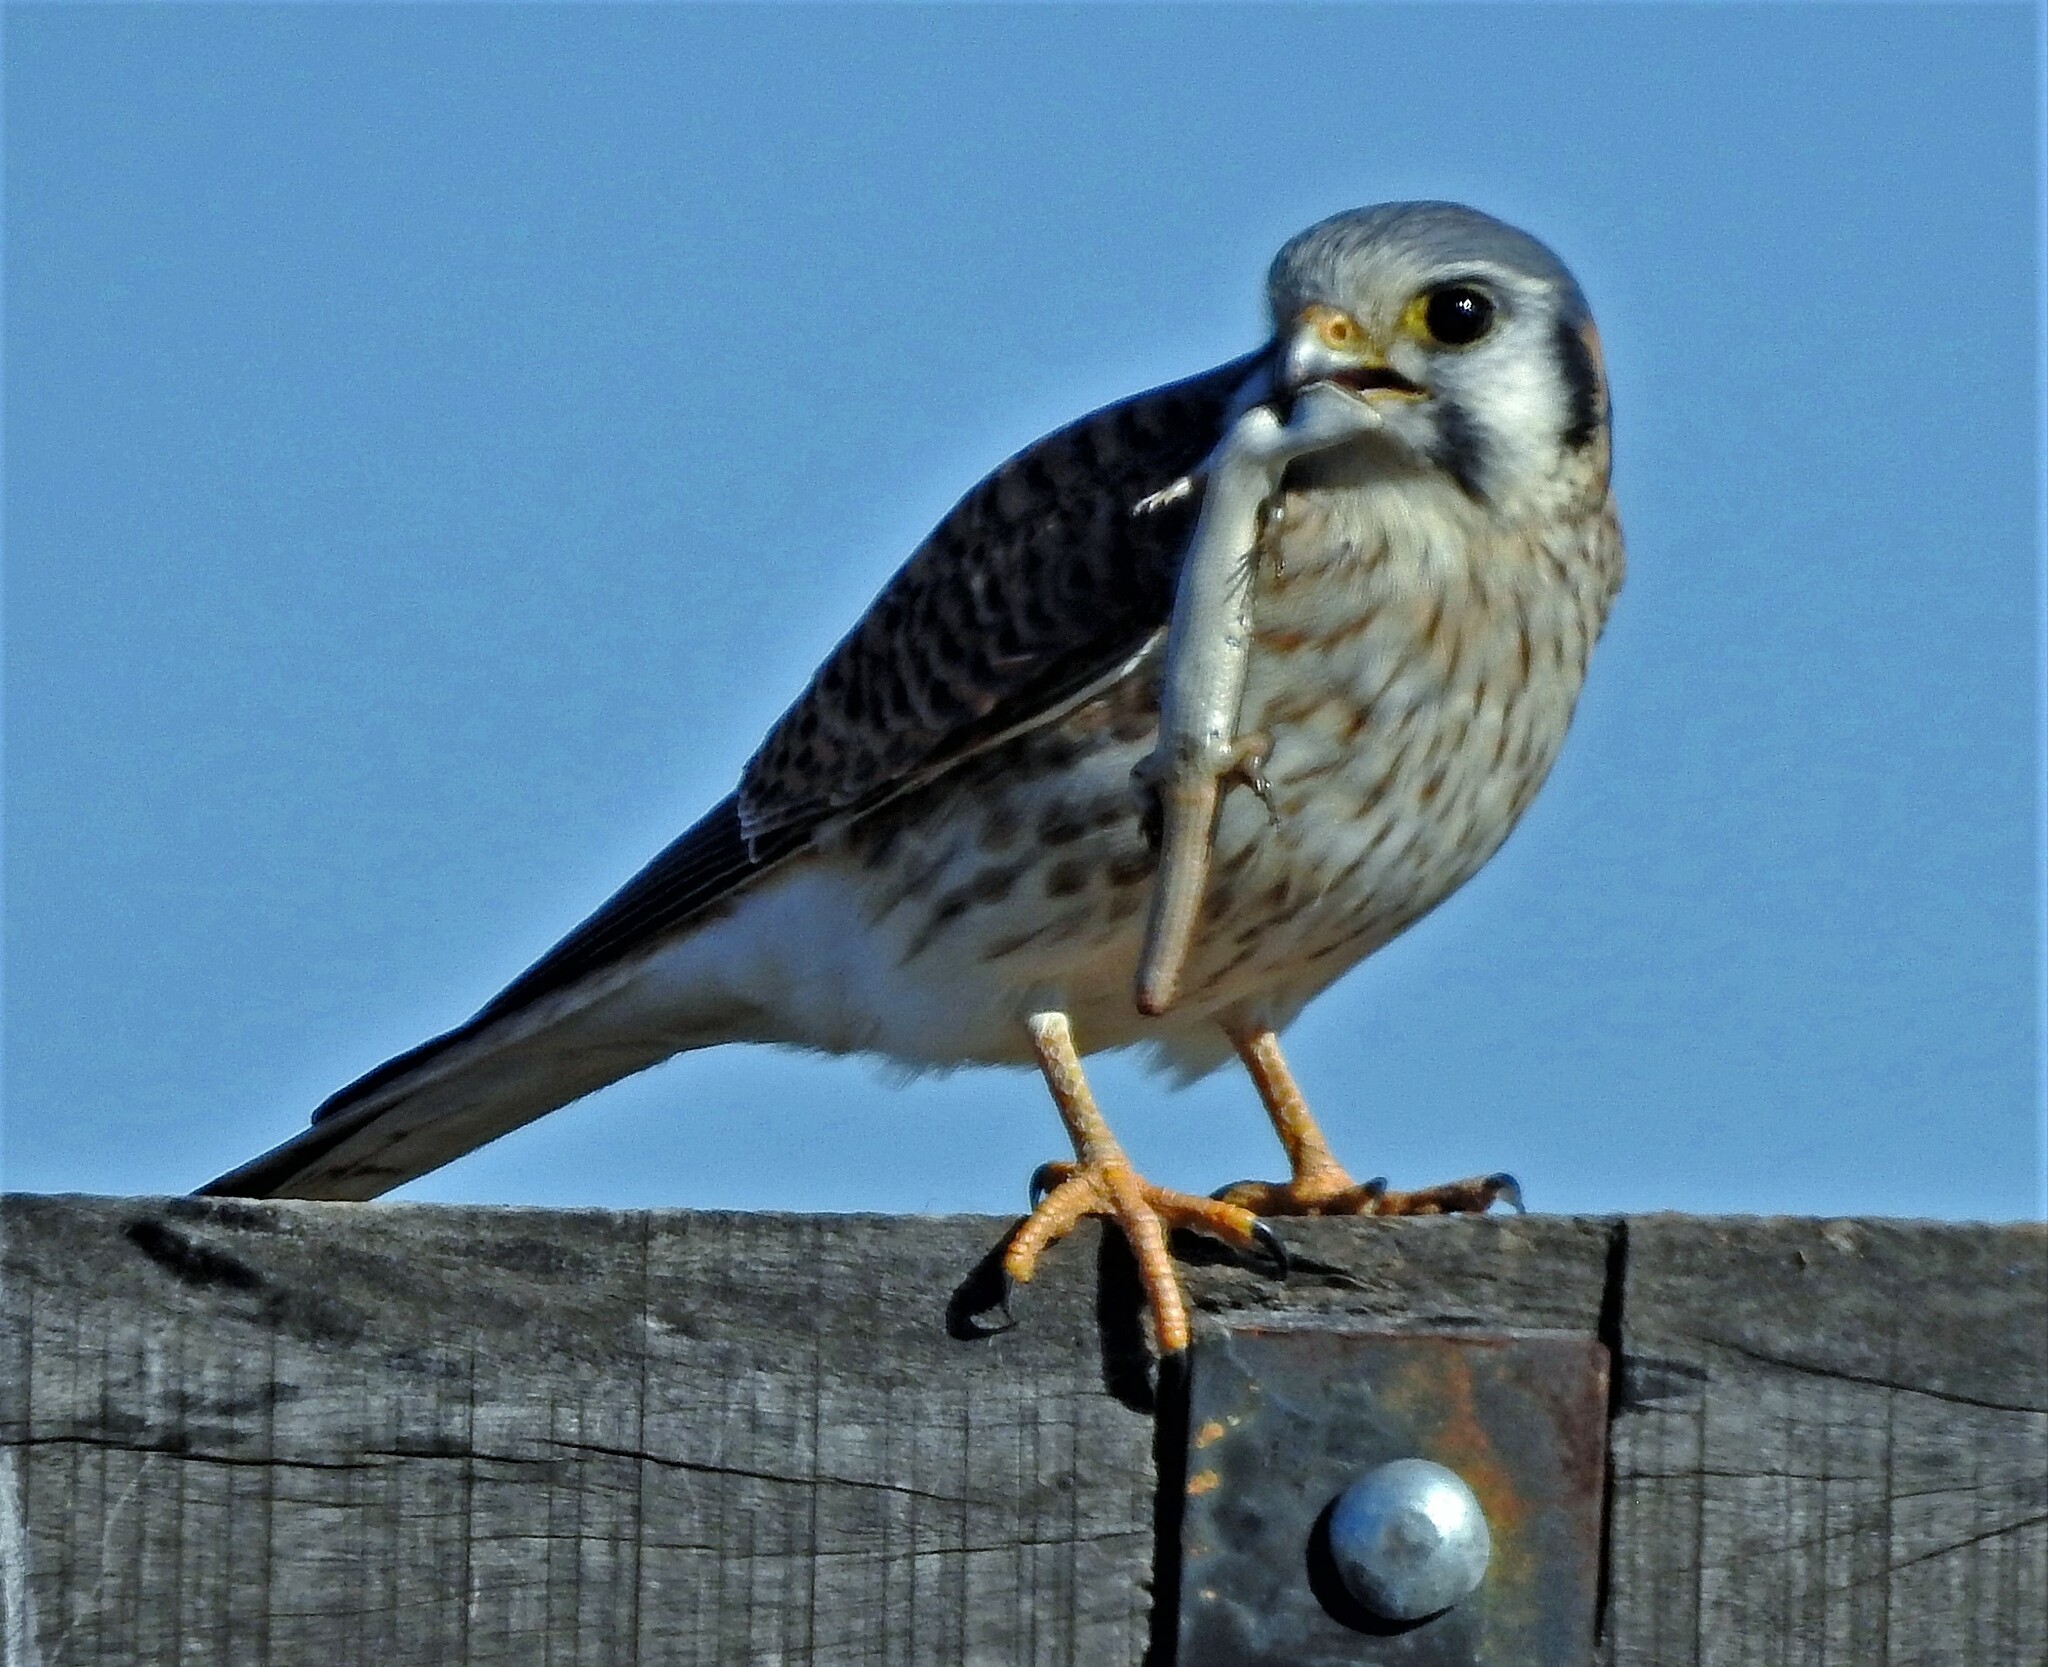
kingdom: Animalia
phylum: Chordata
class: Aves
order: Falconiformes
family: Falconidae
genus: Falco
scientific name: Falco sparverius
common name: American kestrel
